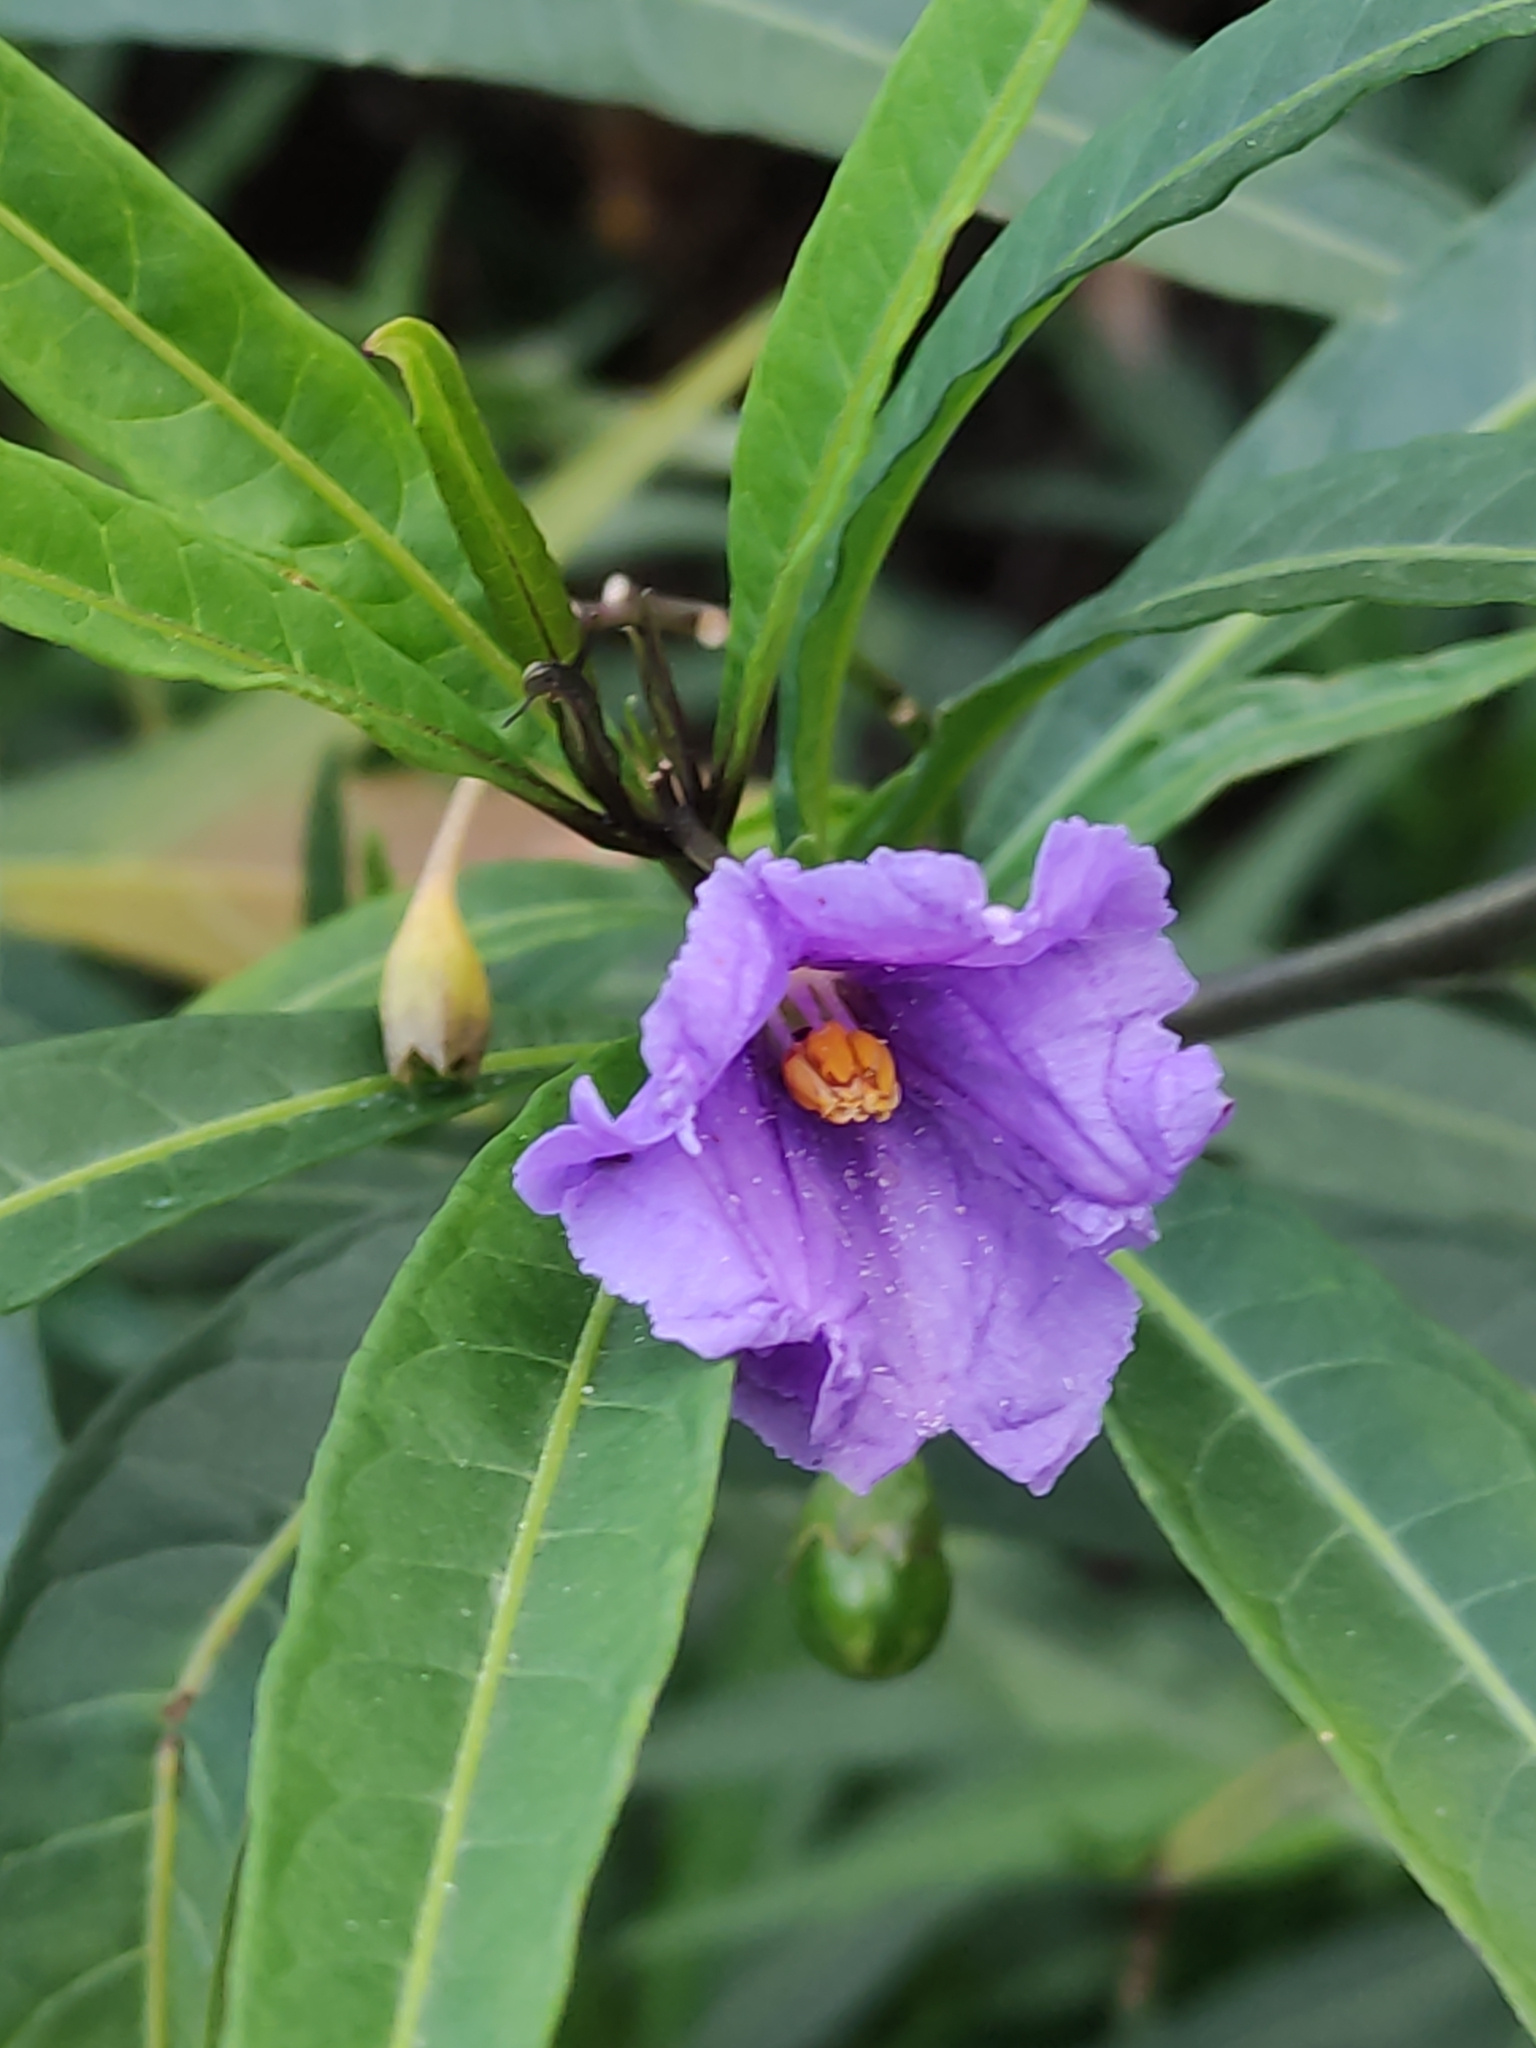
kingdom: Plantae
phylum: Tracheophyta
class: Magnoliopsida
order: Solanales
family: Solanaceae
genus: Solanum
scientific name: Solanum laciniatum
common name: Kangaroo-apple
